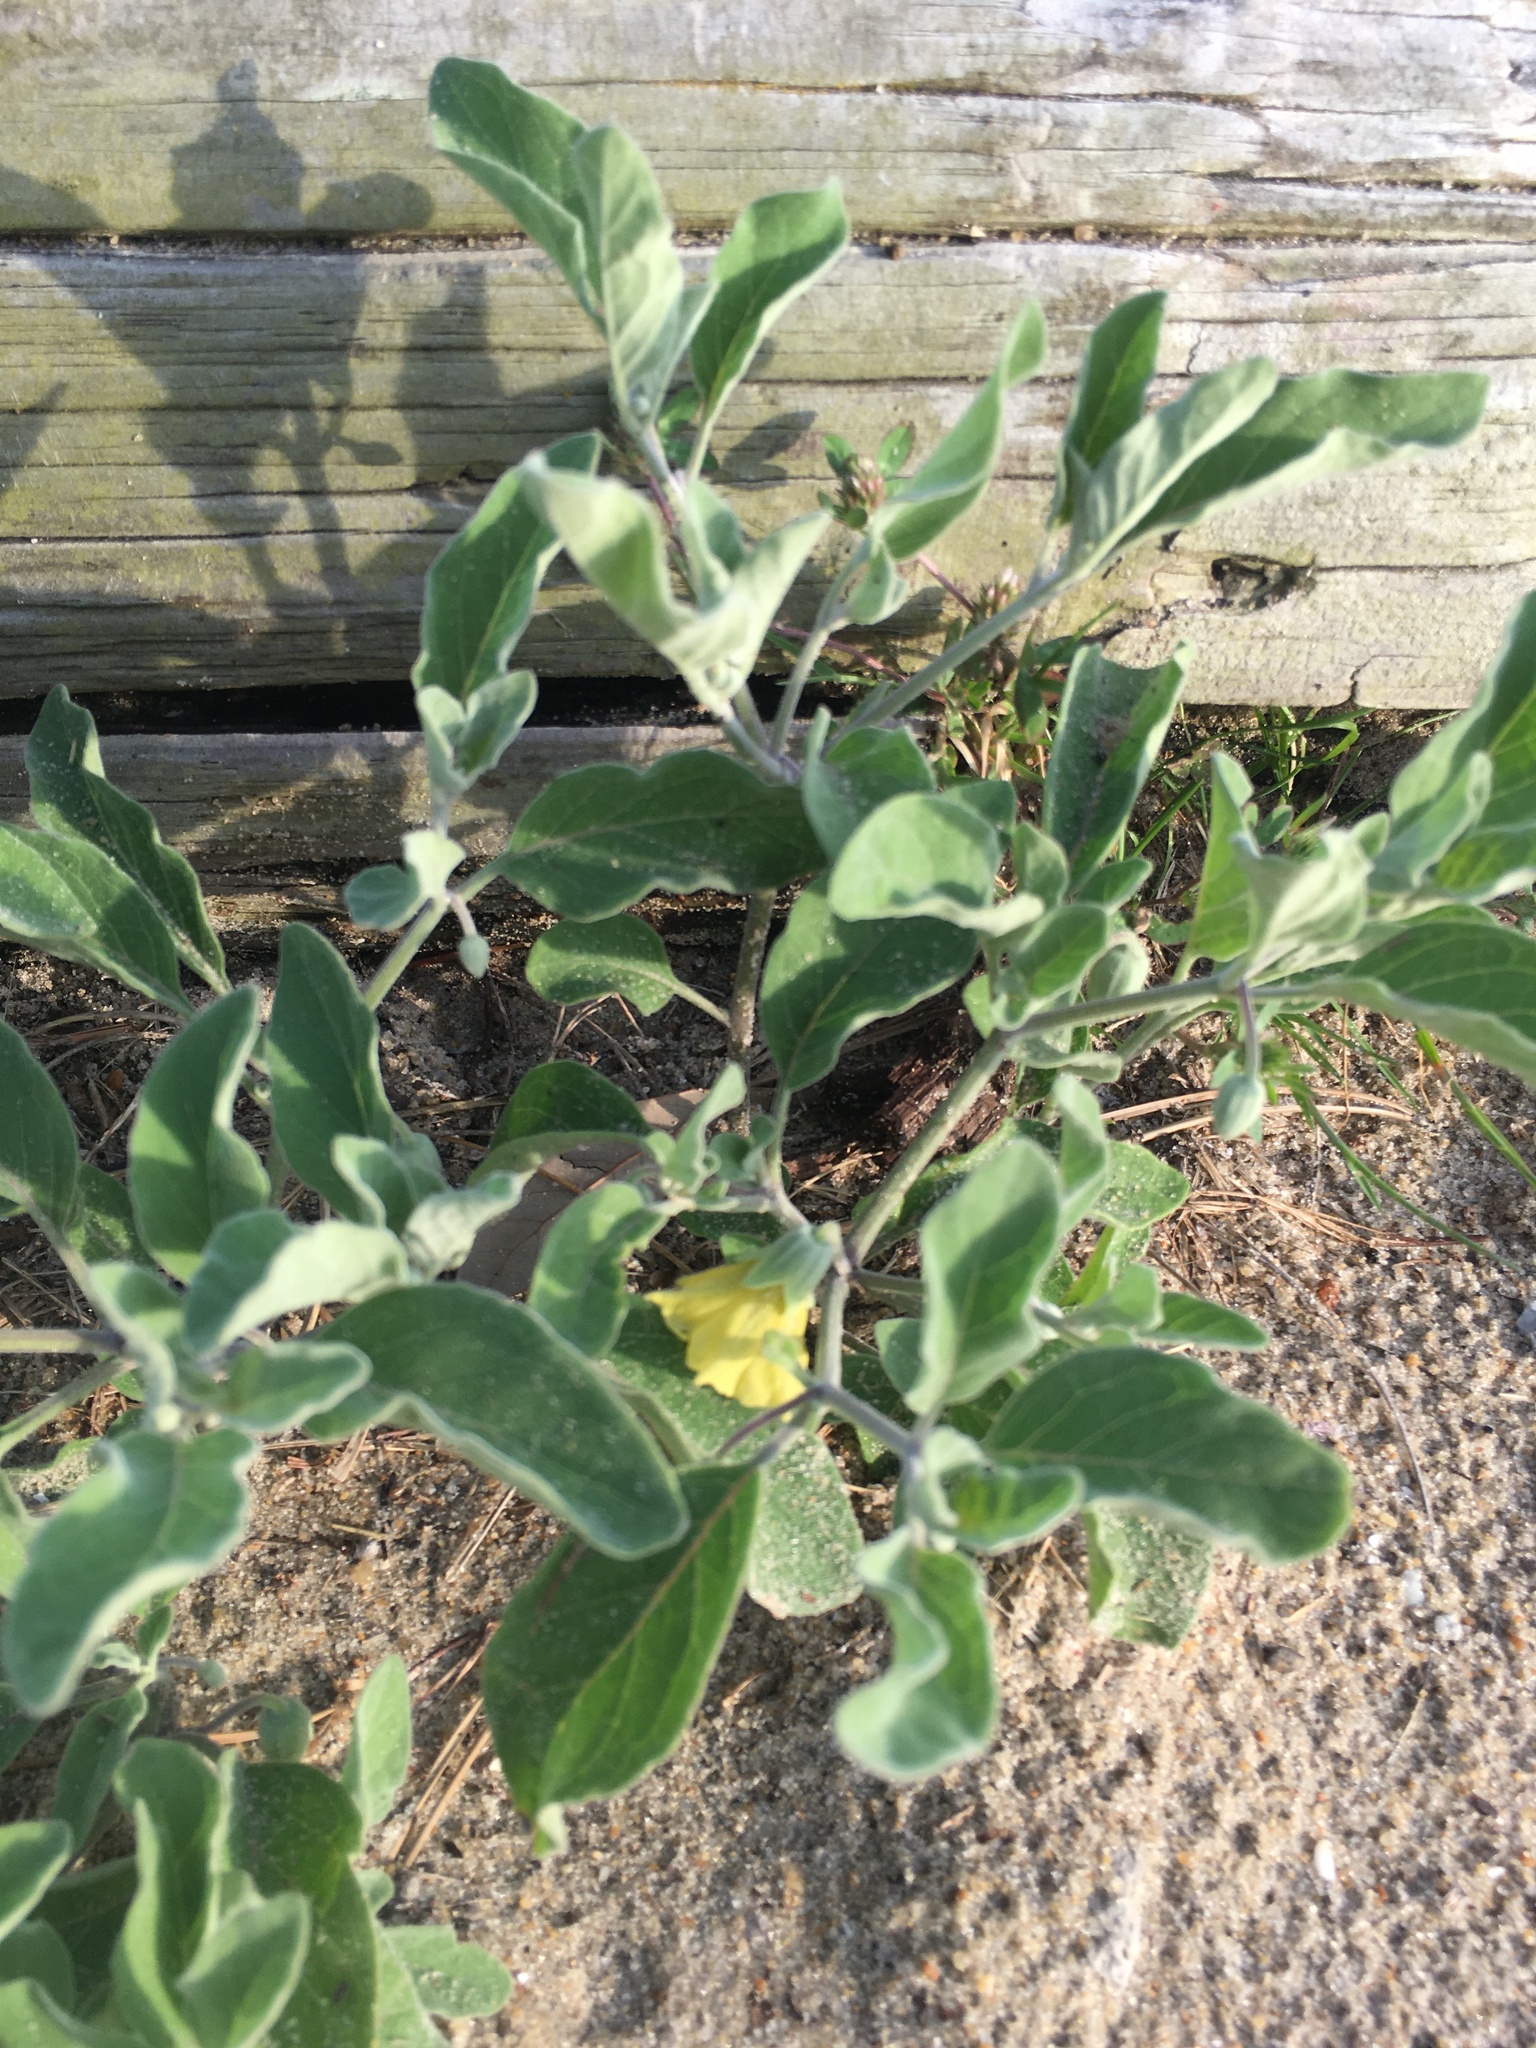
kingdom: Plantae
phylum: Tracheophyta
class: Magnoliopsida
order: Solanales
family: Solanaceae
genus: Physalis
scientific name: Physalis walteri
